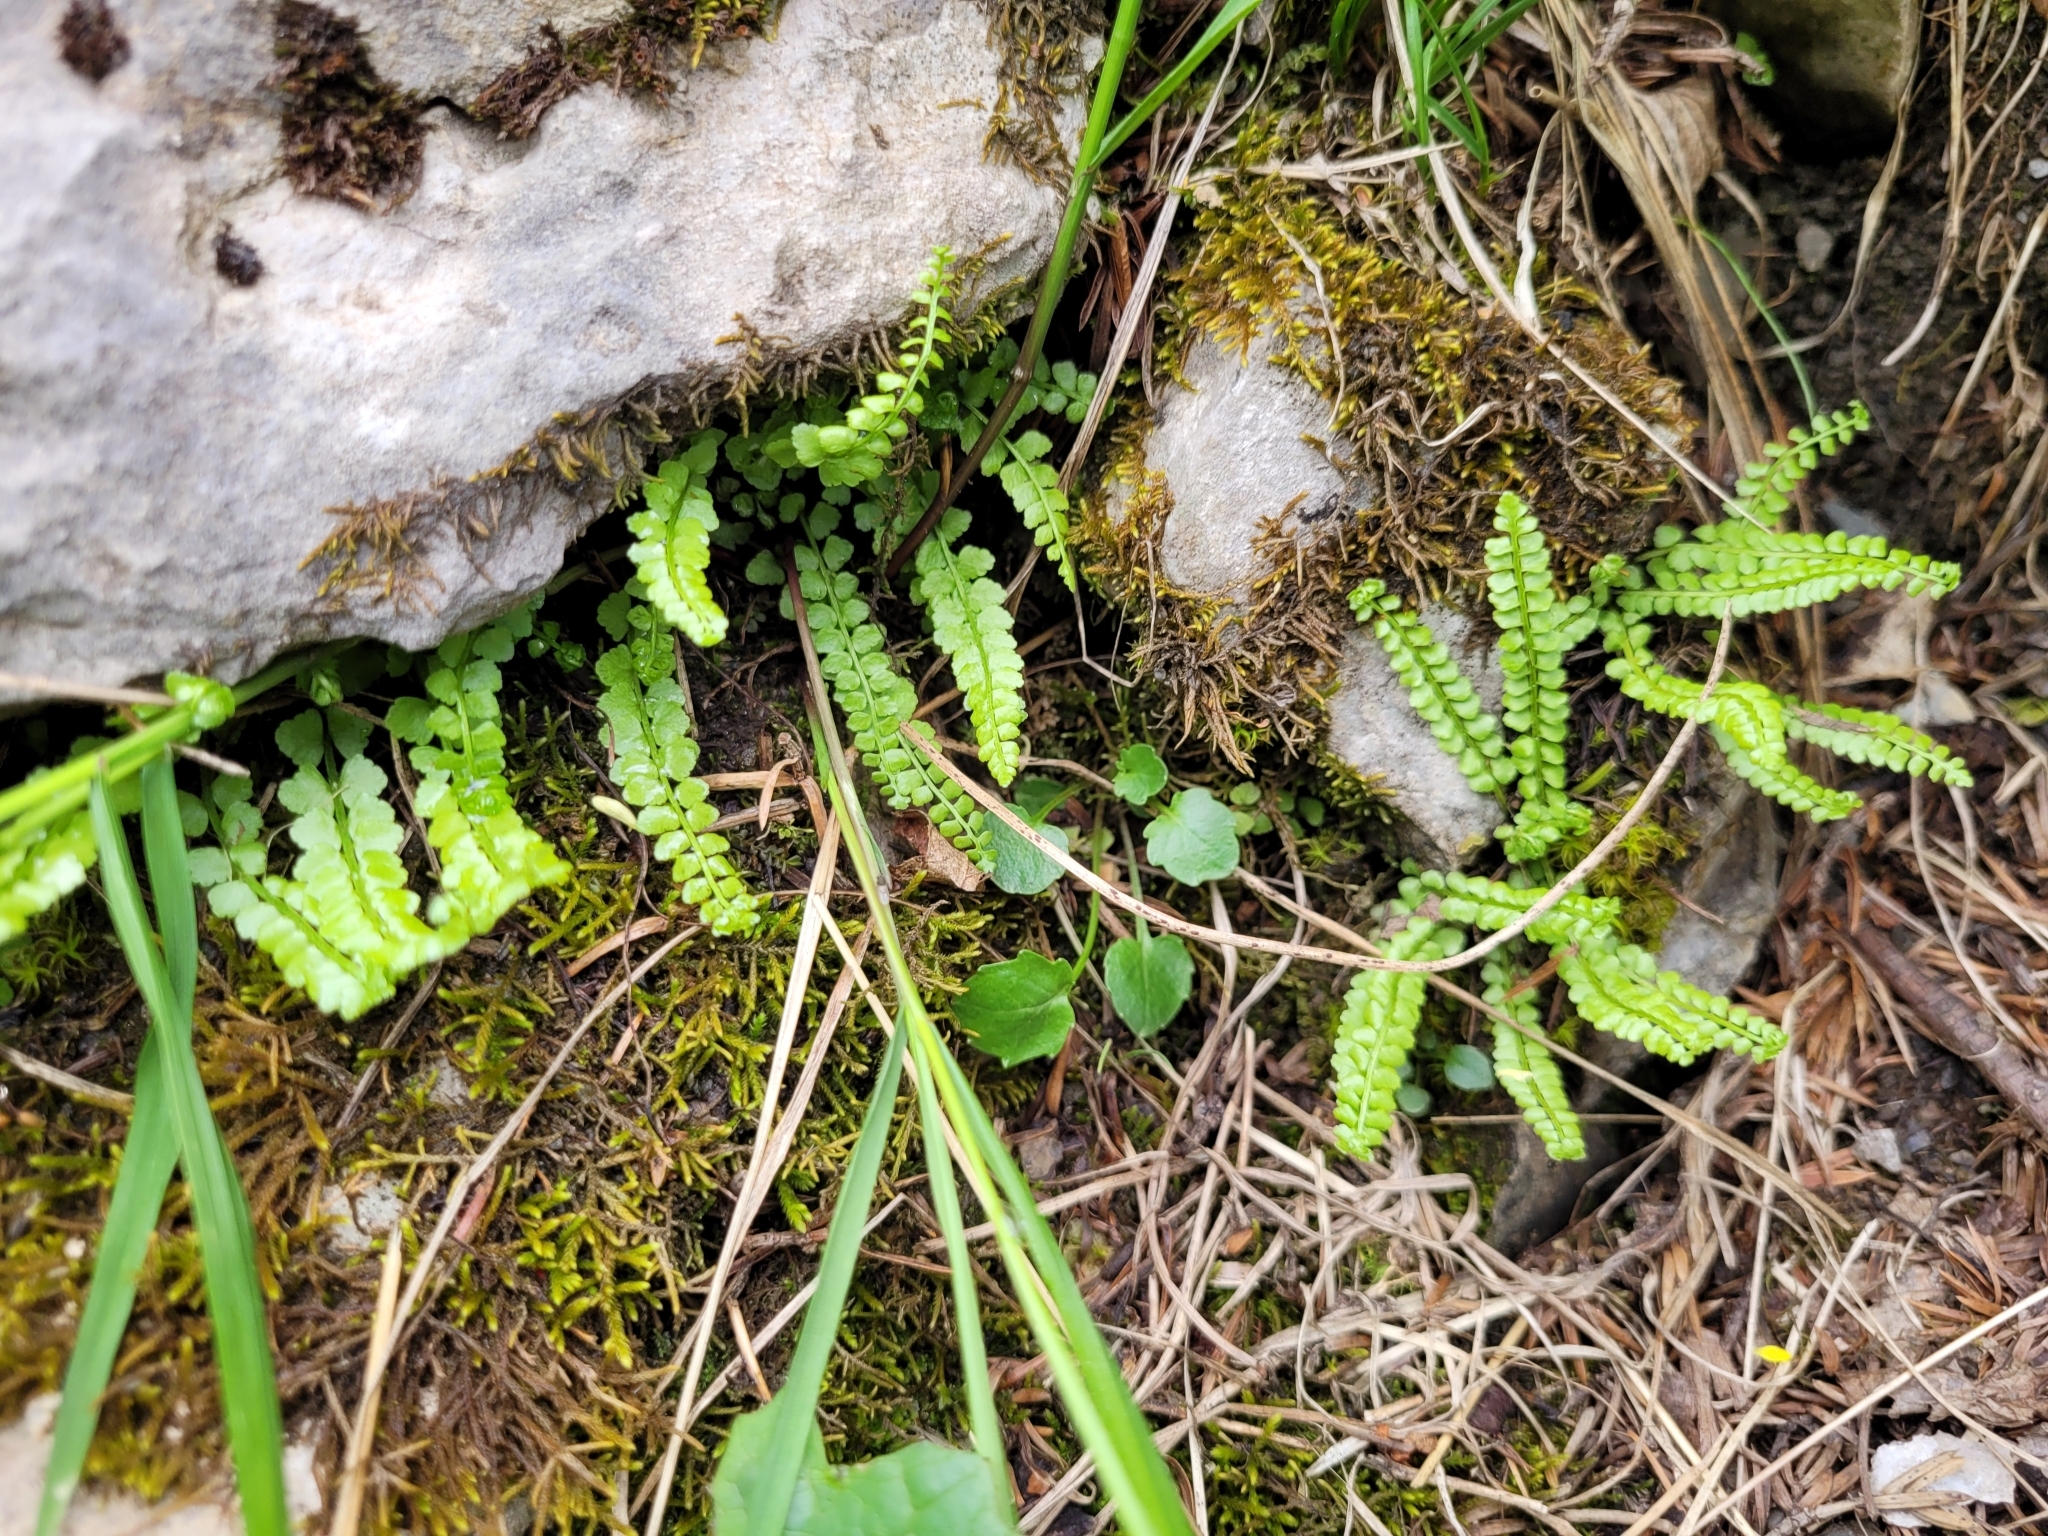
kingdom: Plantae
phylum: Tracheophyta
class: Polypodiopsida
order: Polypodiales
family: Aspleniaceae
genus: Asplenium
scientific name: Asplenium viride
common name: Green spleenwort
